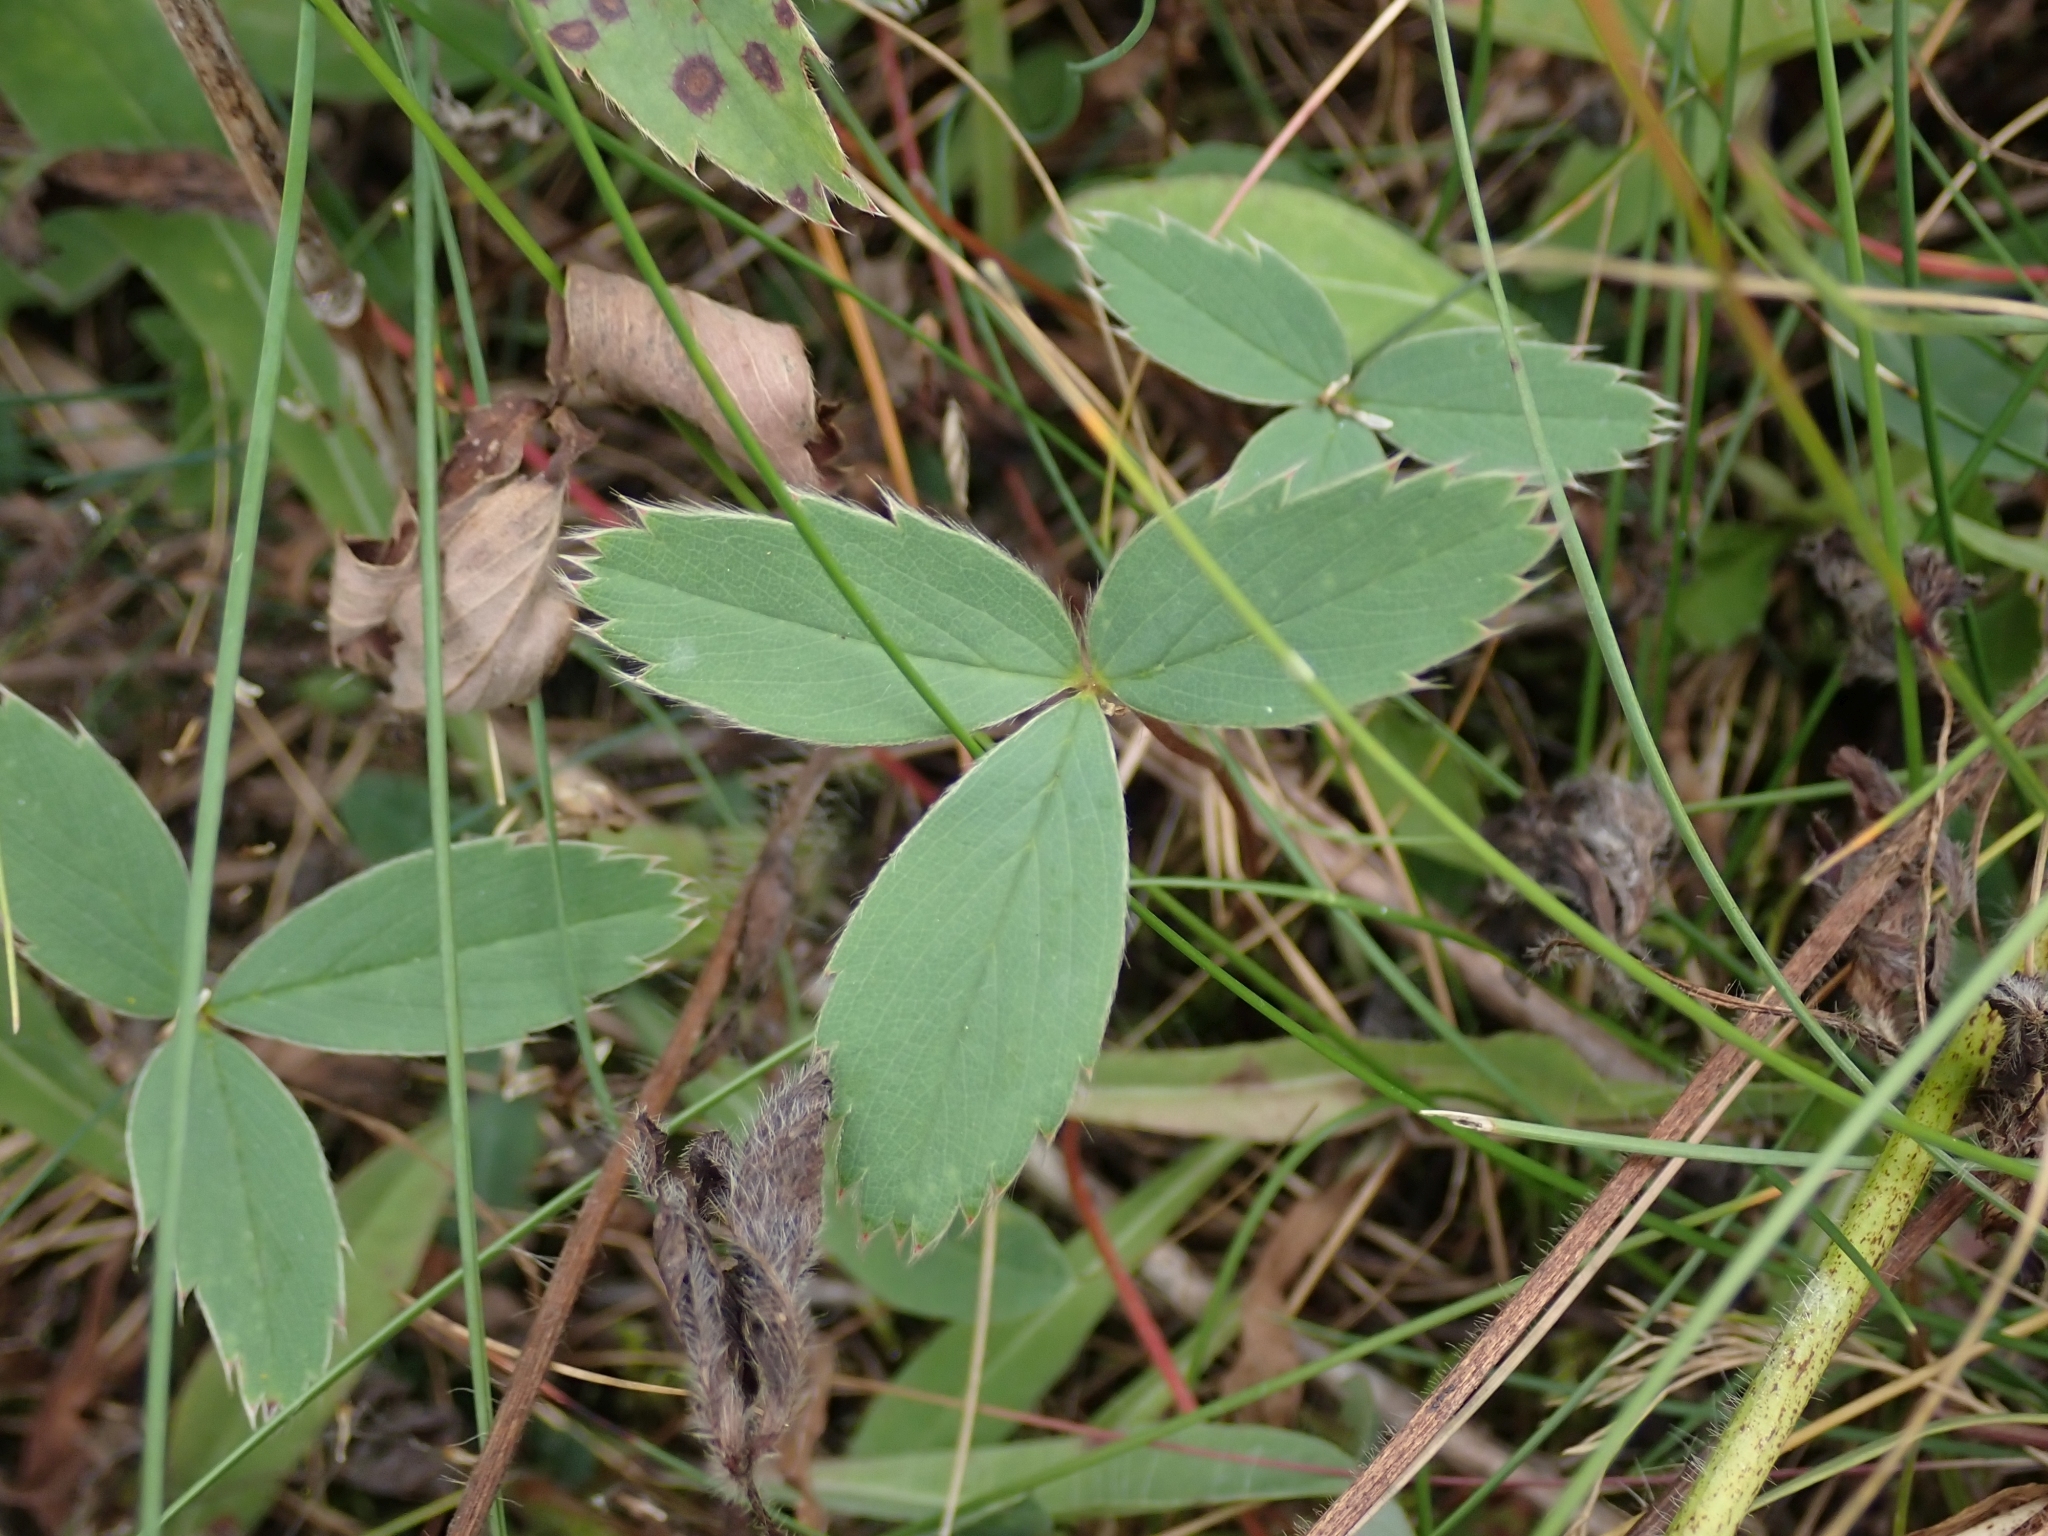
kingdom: Plantae
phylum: Tracheophyta
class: Magnoliopsida
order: Rosales
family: Rosaceae
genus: Fragaria
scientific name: Fragaria virginiana
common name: Thickleaved wild strawberry
